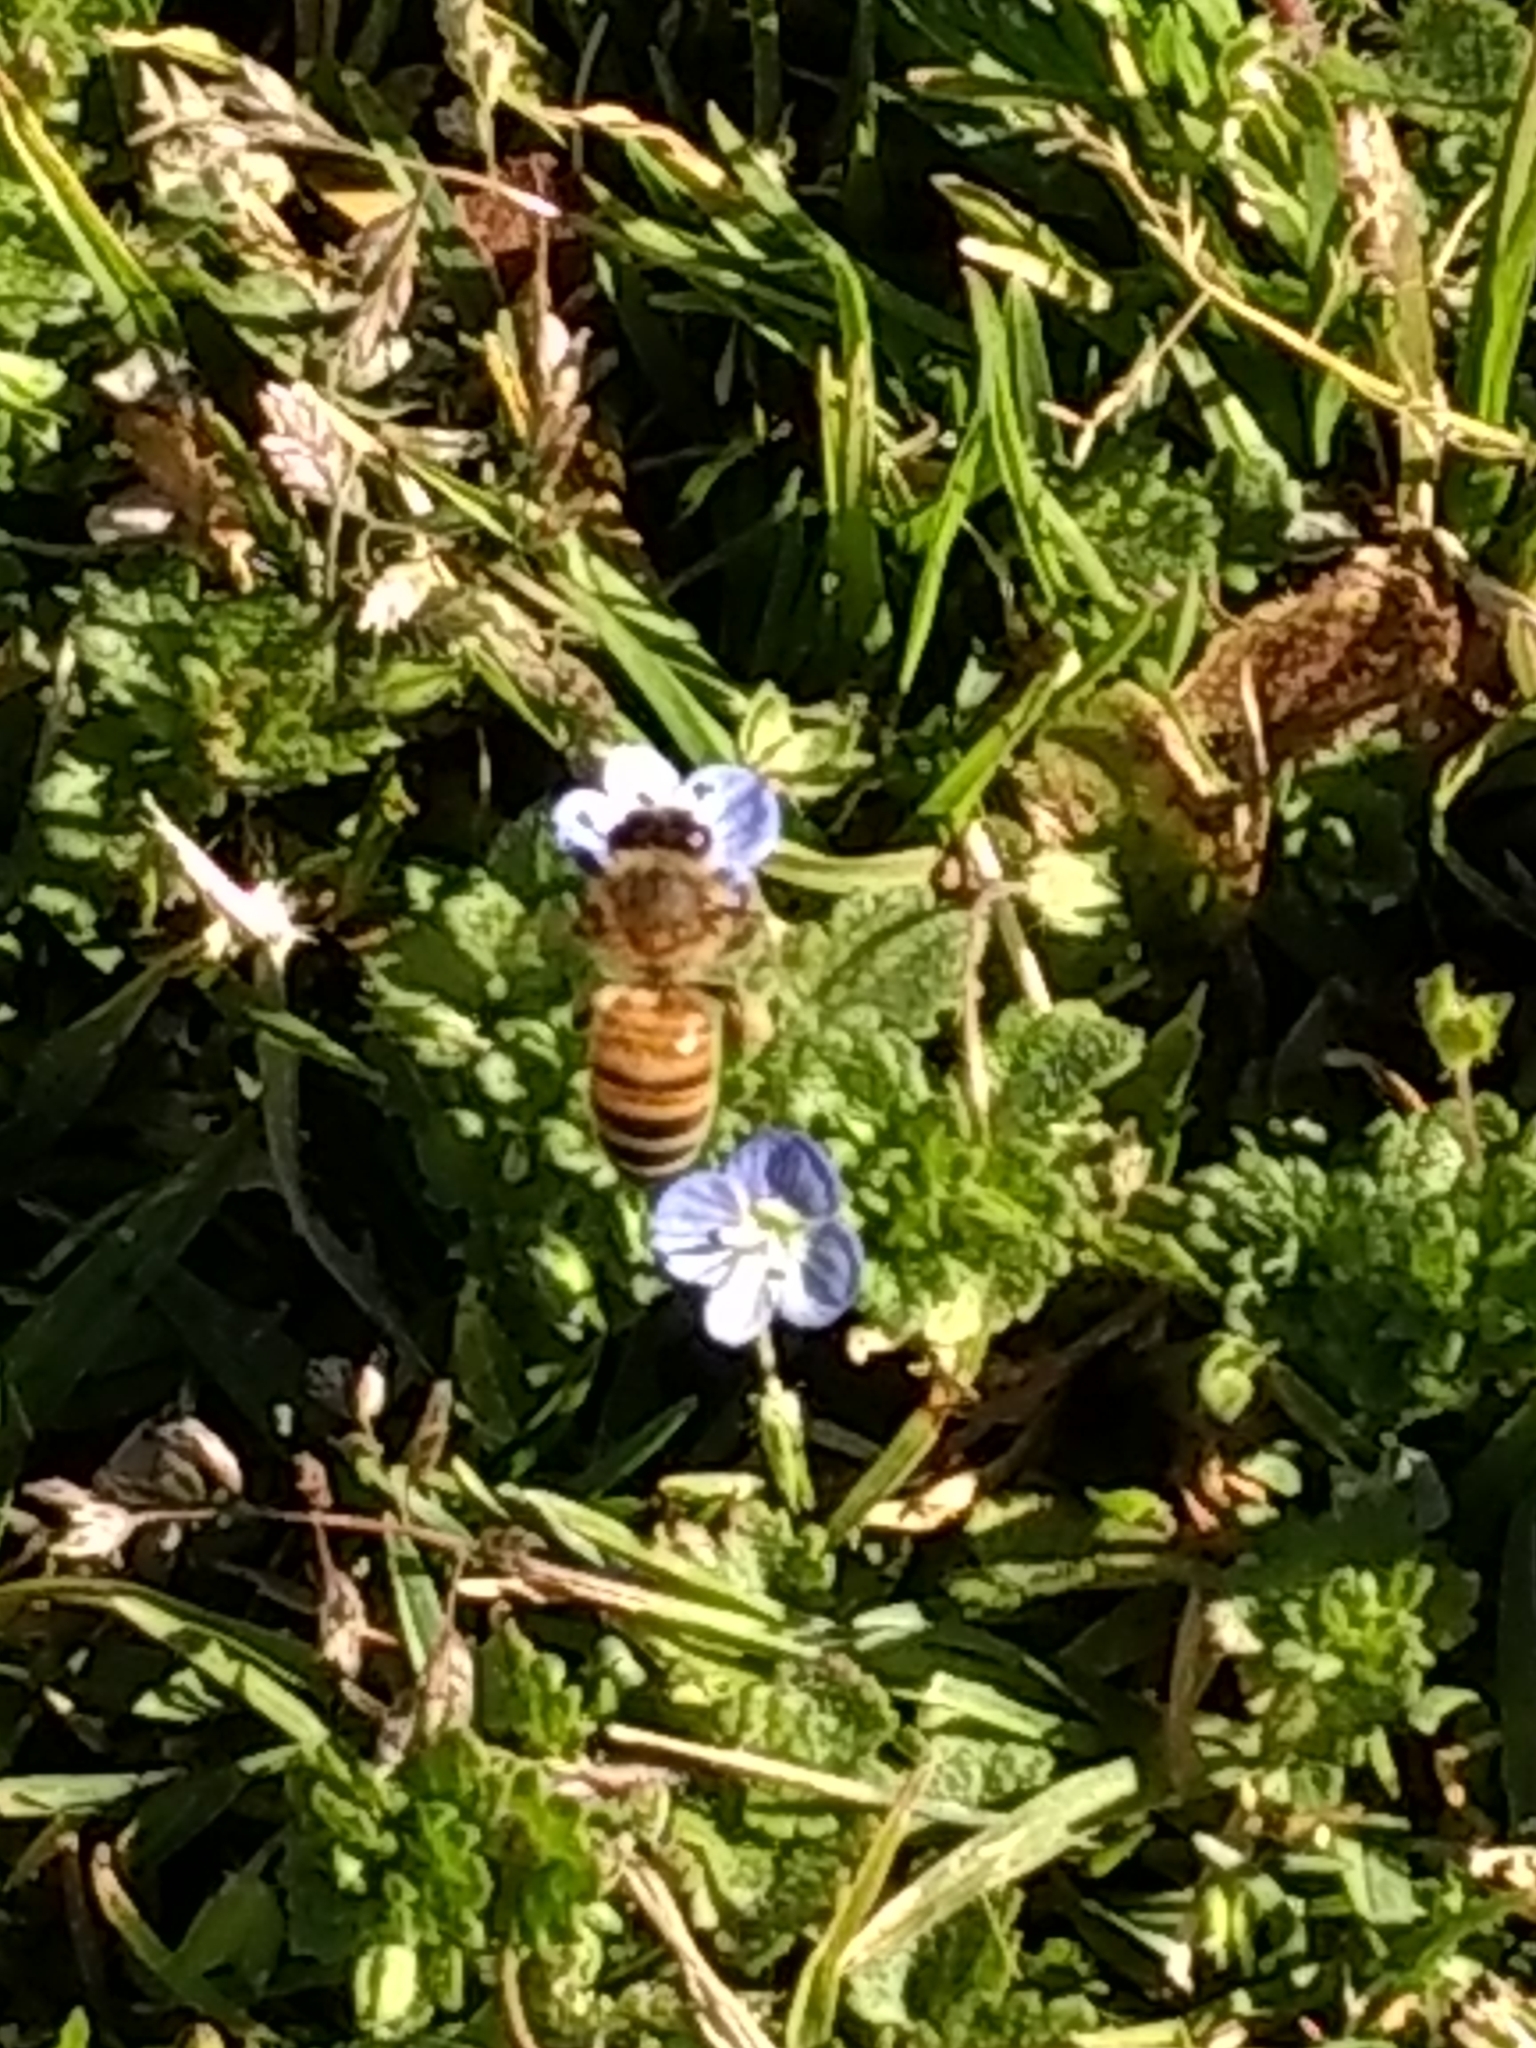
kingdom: Animalia
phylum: Arthropoda
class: Insecta
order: Hymenoptera
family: Apidae
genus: Apis
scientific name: Apis mellifera
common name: Honey bee
